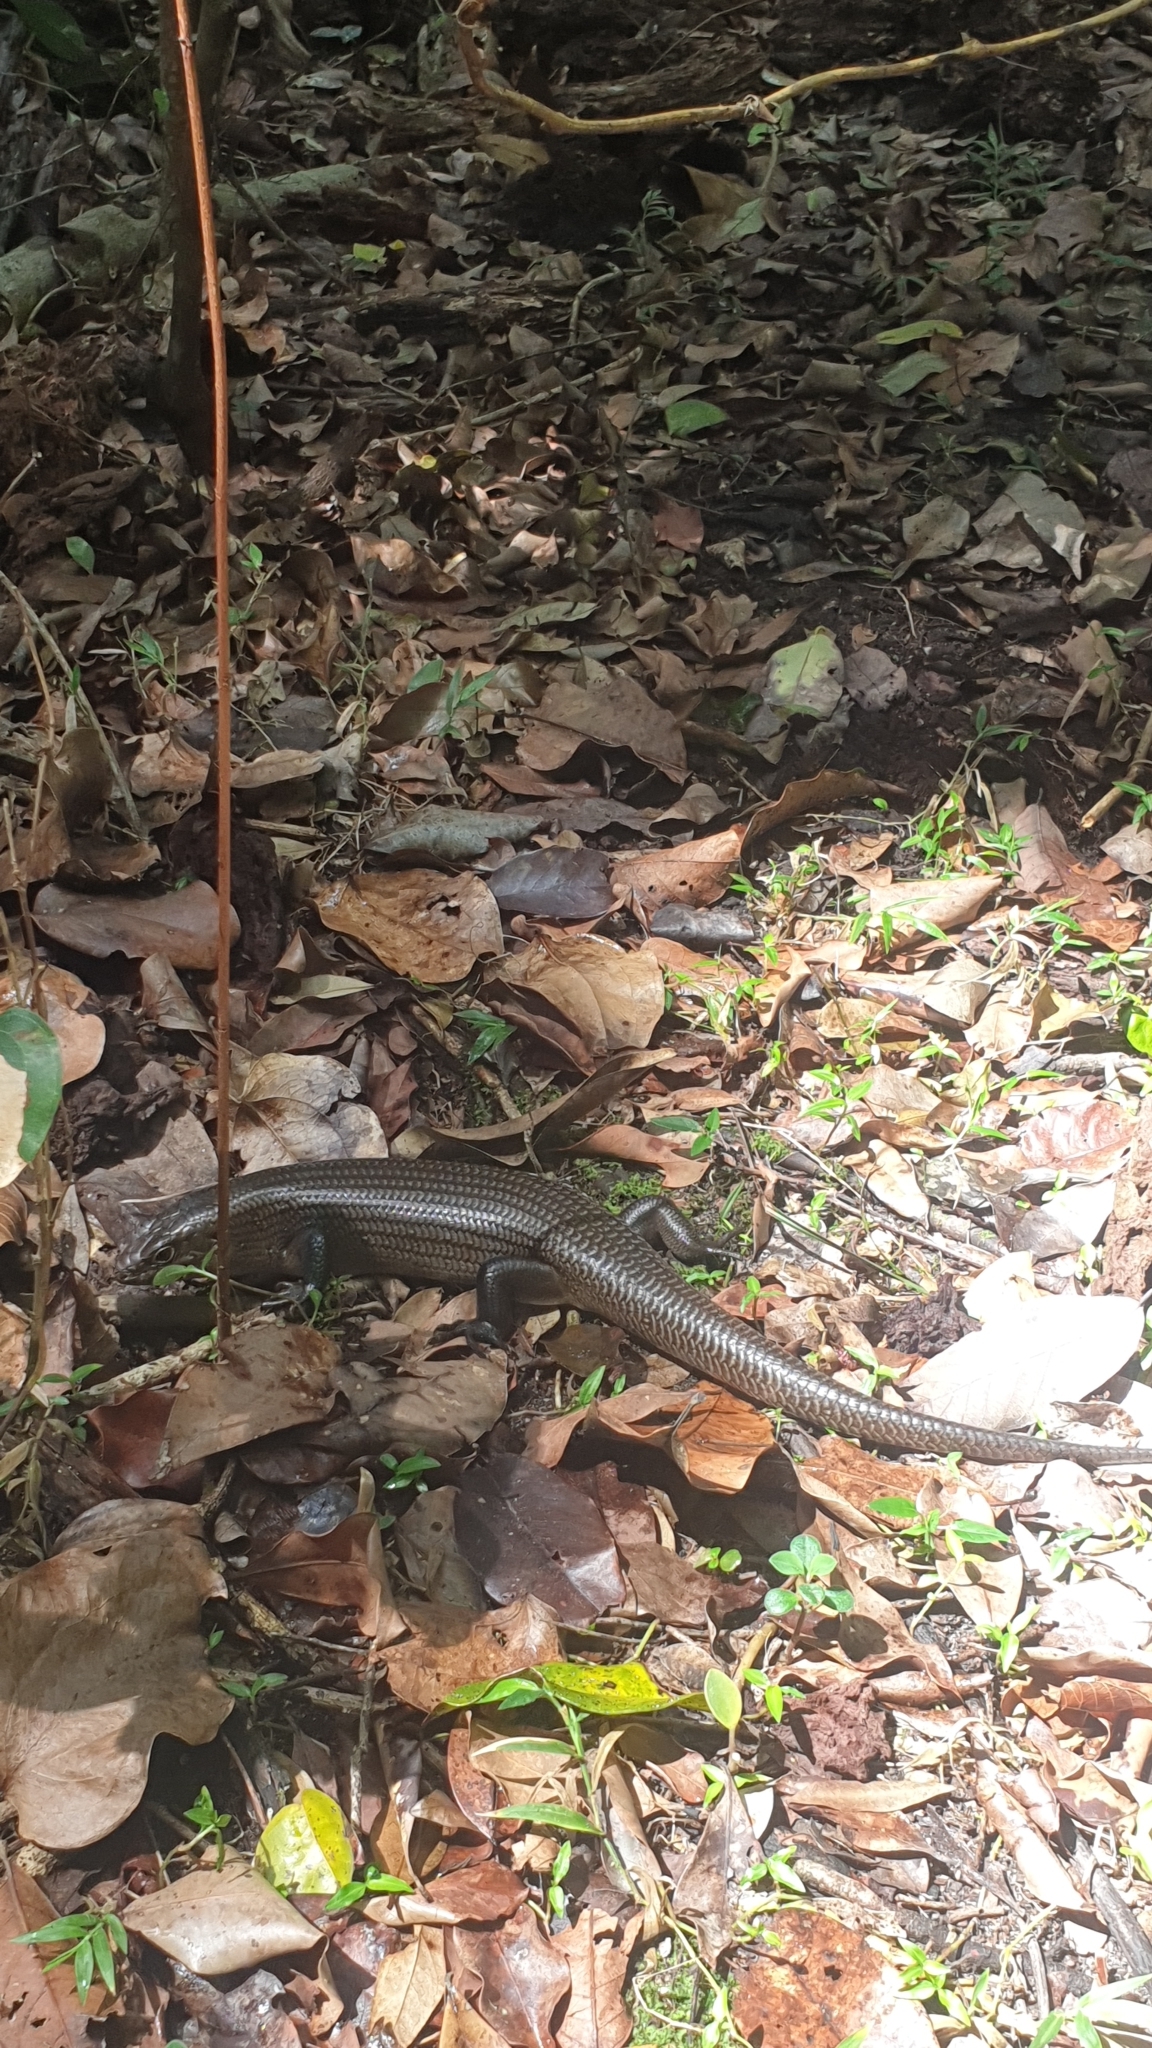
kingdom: Animalia
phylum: Chordata
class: Squamata
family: Scincidae
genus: Bellatorias
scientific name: Bellatorias major
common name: Land mullet
